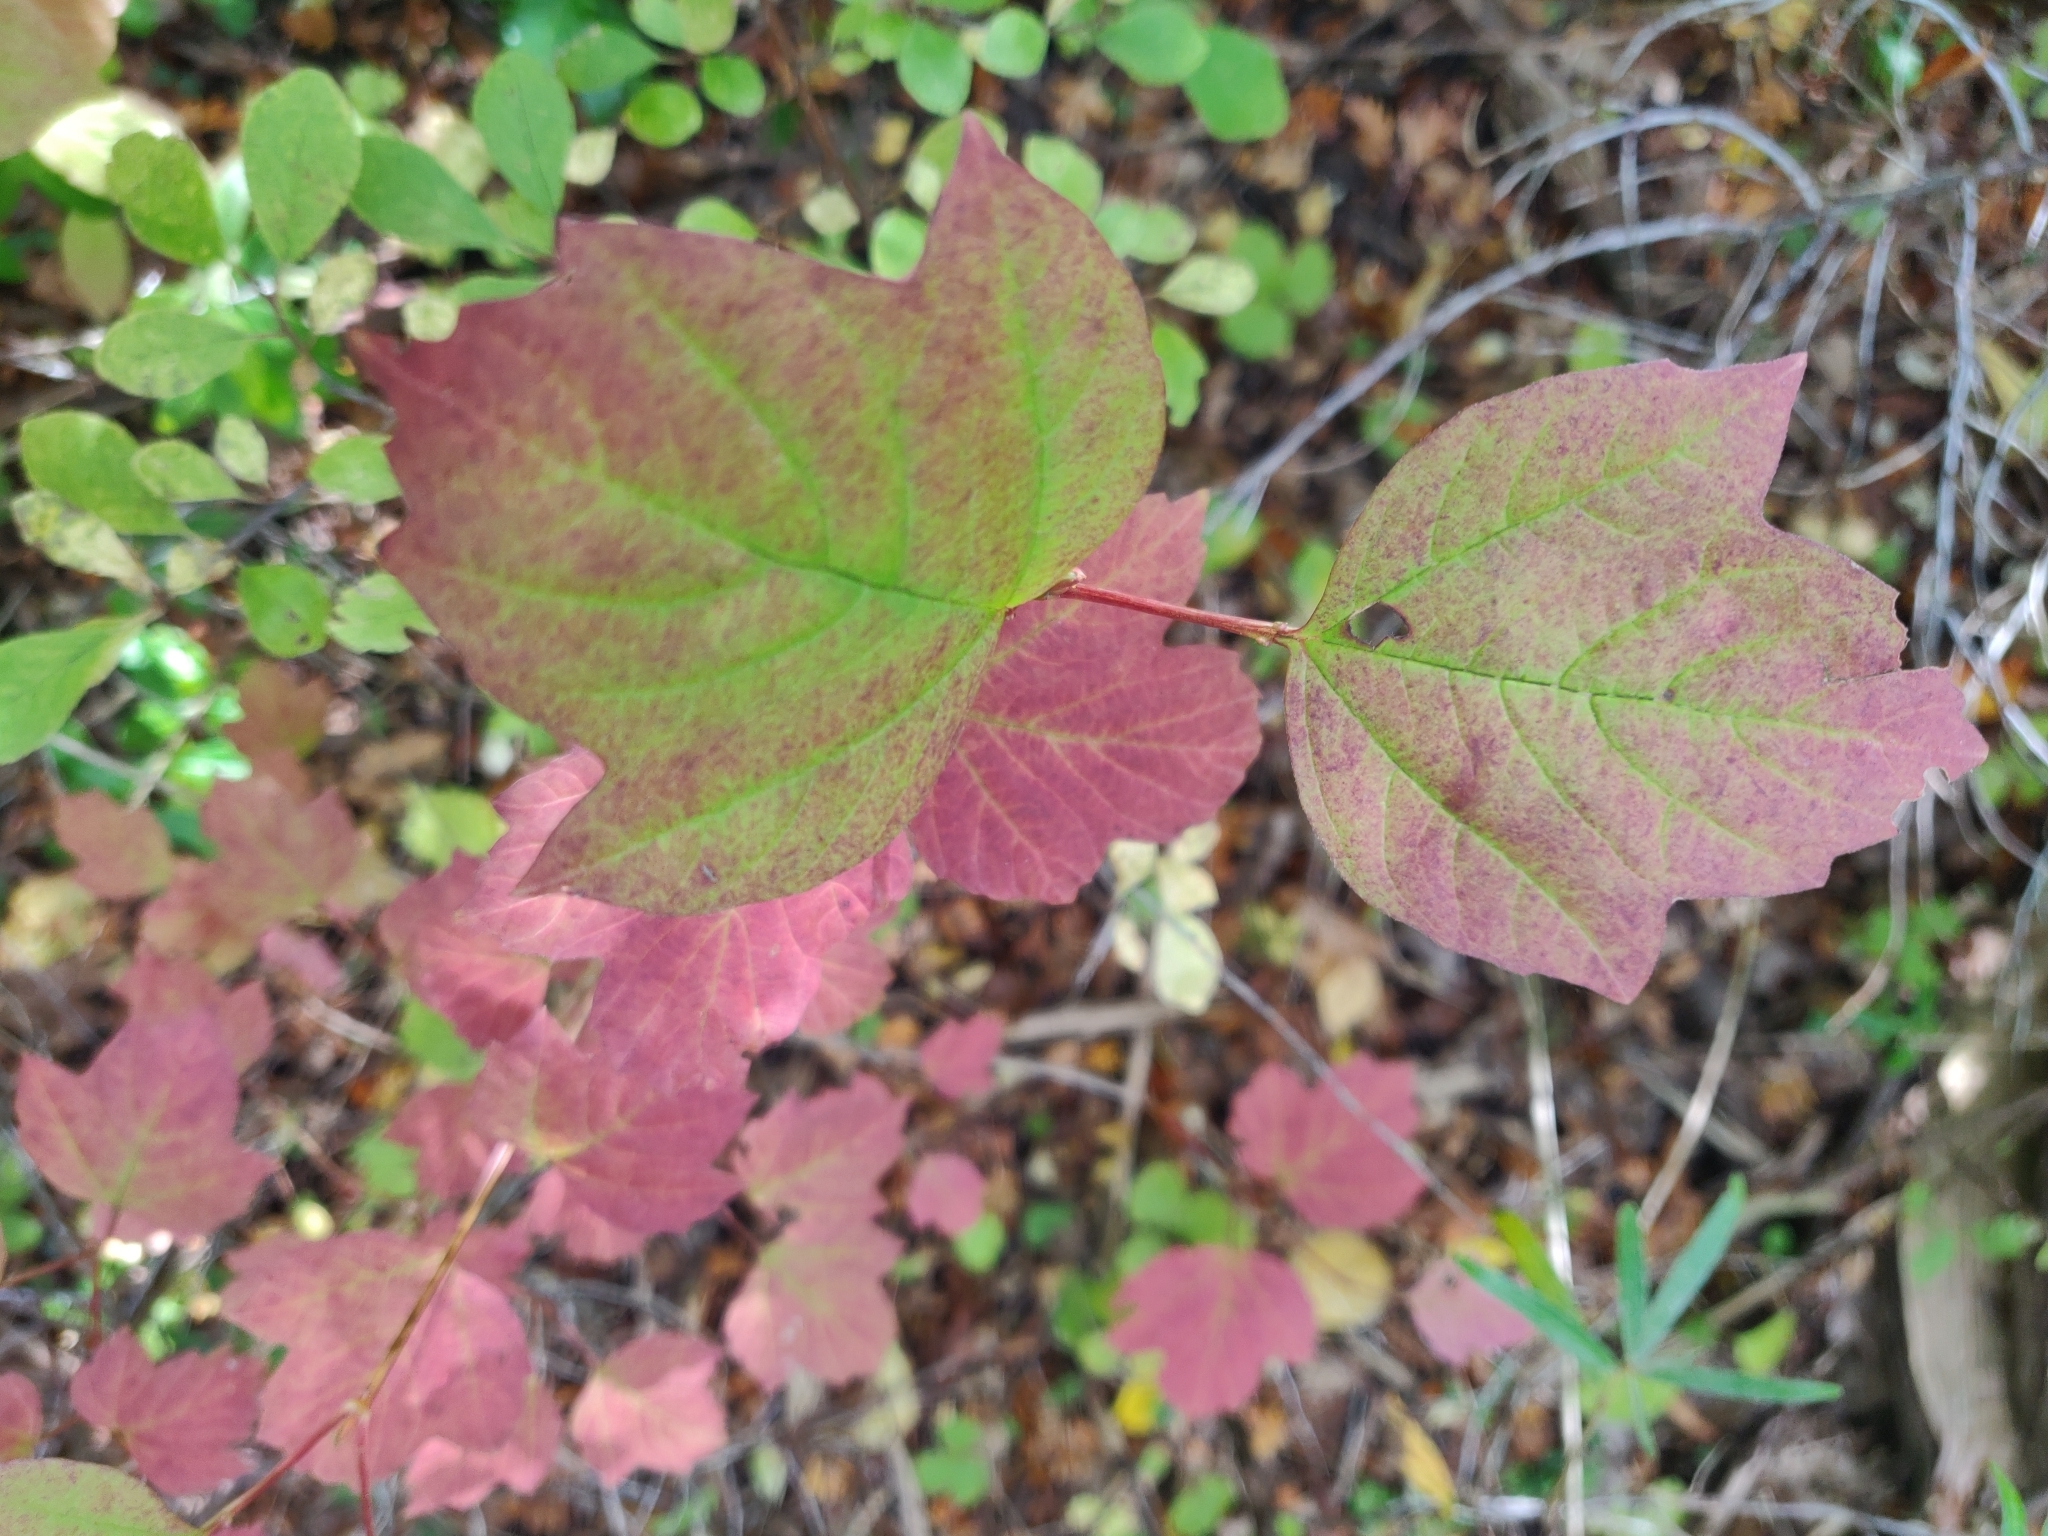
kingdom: Plantae
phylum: Tracheophyta
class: Magnoliopsida
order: Dipsacales
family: Viburnaceae
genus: Viburnum
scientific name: Viburnum opulus
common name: Guelder-rose
